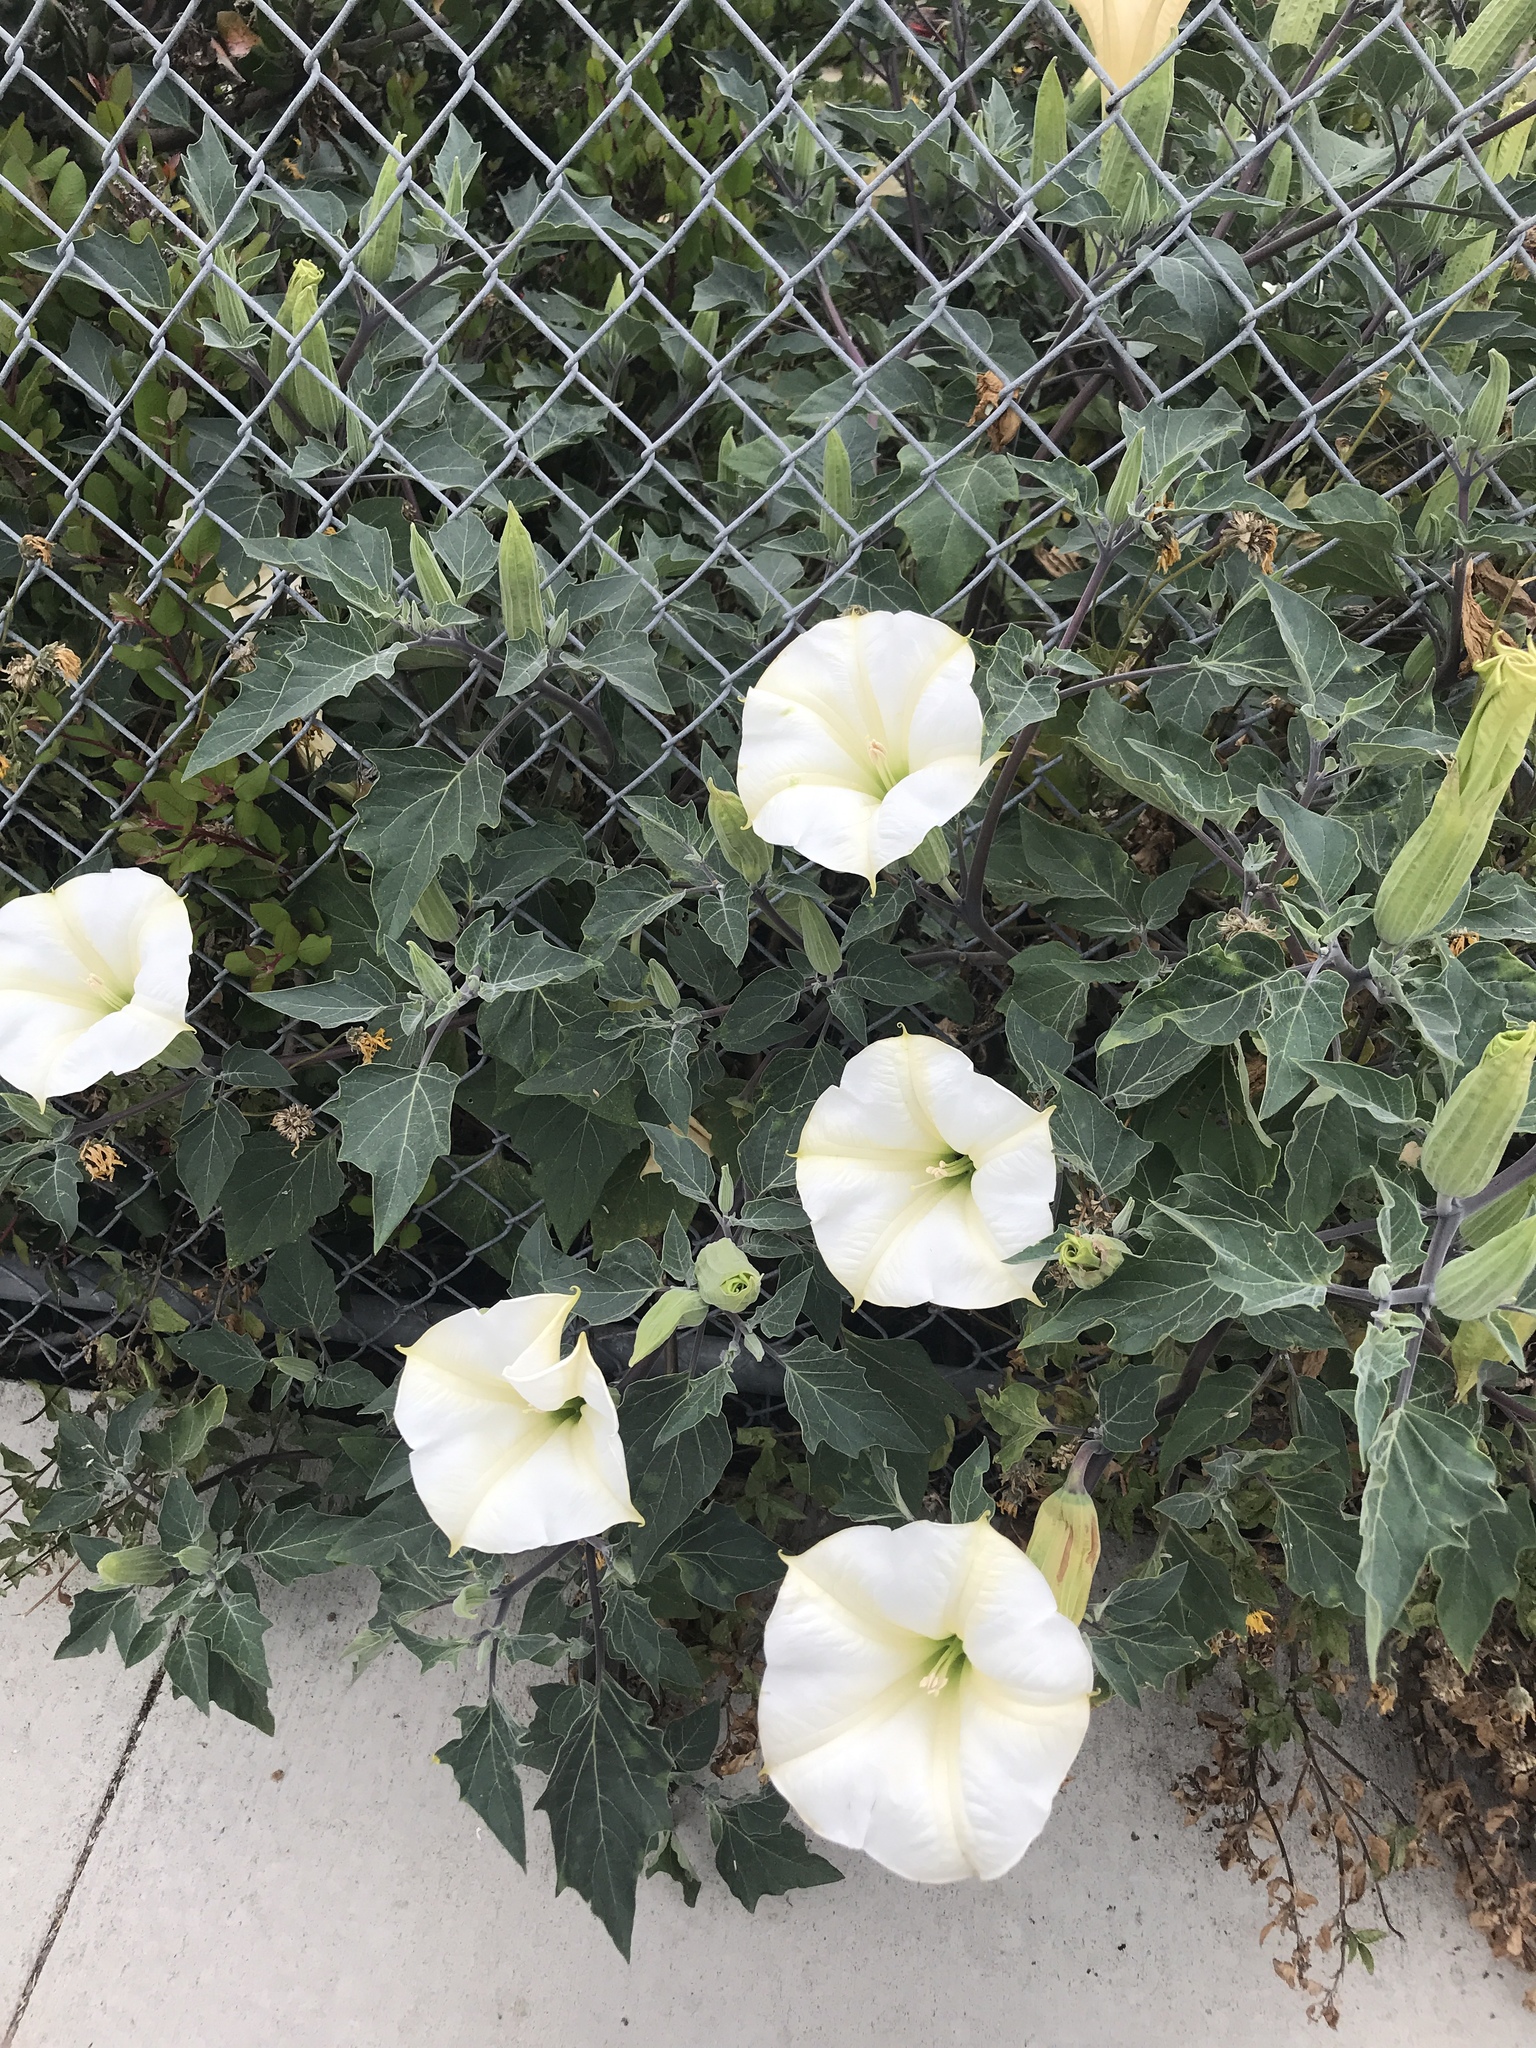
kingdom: Plantae
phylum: Tracheophyta
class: Magnoliopsida
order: Solanales
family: Solanaceae
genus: Datura
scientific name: Datura wrightii
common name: Sacred thorn-apple
